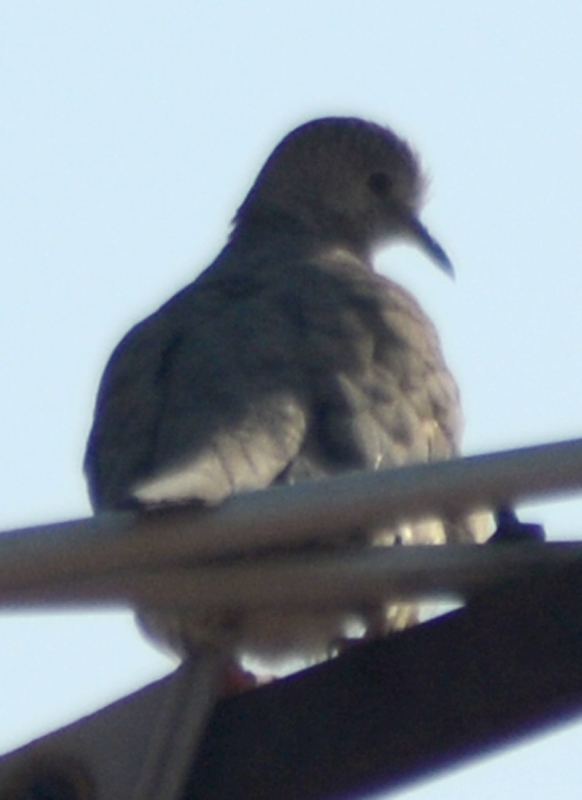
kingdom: Animalia
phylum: Chordata
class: Aves
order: Columbiformes
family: Columbidae
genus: Columbina
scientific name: Columbina inca
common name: Inca dove
